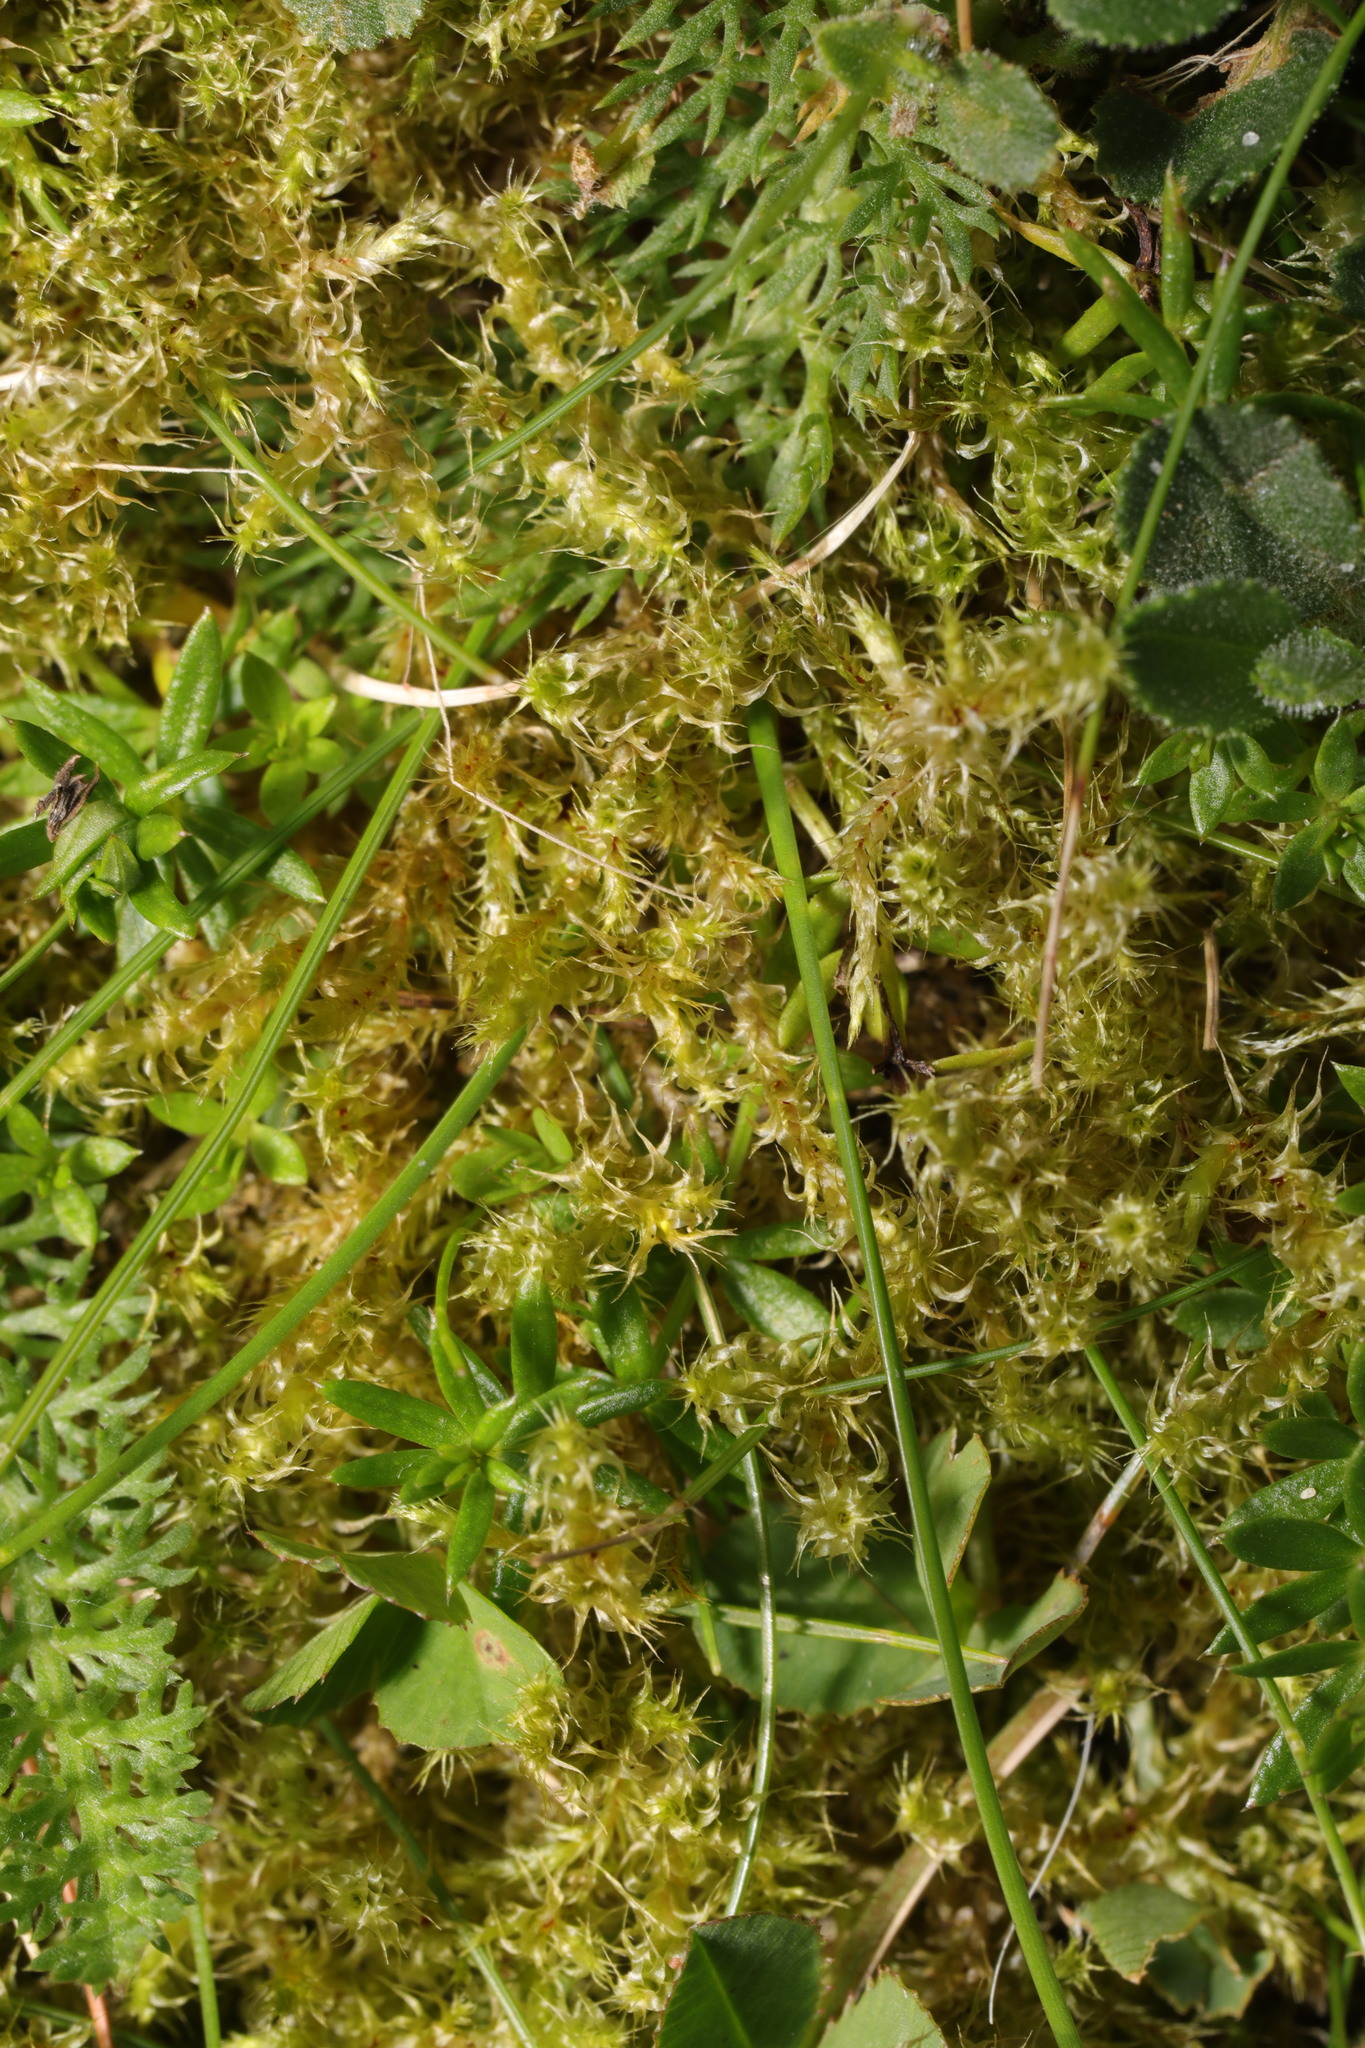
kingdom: Plantae
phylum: Bryophyta
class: Bryopsida
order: Hypnales
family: Hylocomiaceae
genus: Rhytidiadelphus
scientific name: Rhytidiadelphus squarrosus
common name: Springy turf-moss
